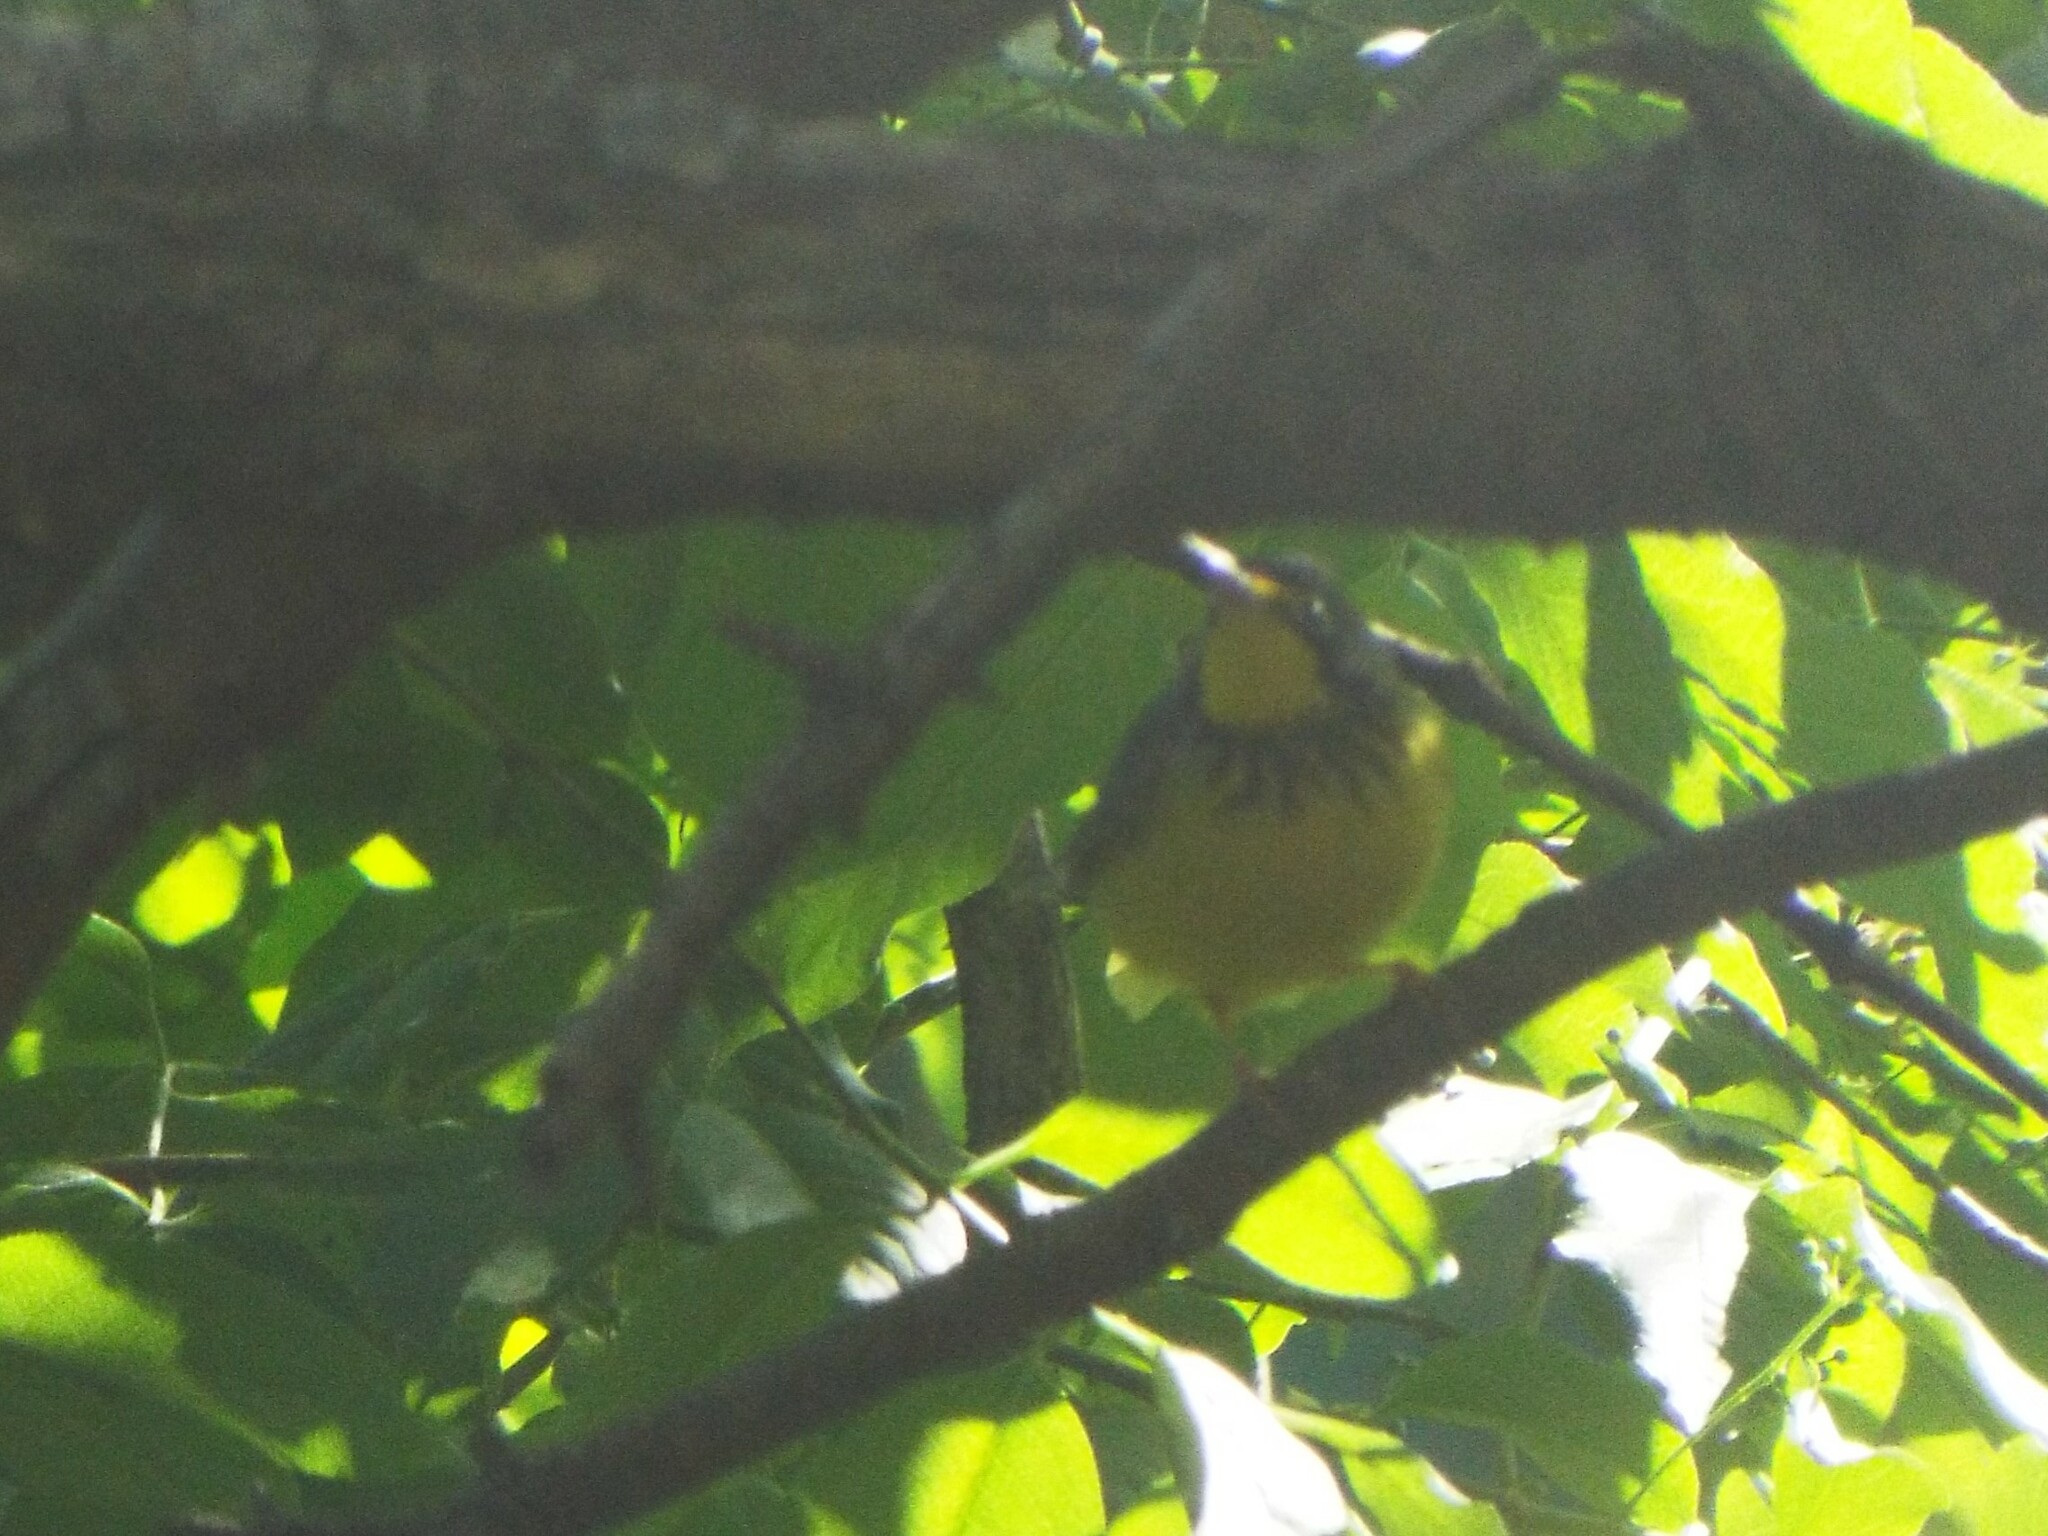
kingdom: Animalia
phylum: Chordata
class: Aves
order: Passeriformes
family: Parulidae
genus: Cardellina
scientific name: Cardellina canadensis
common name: Canada warbler
